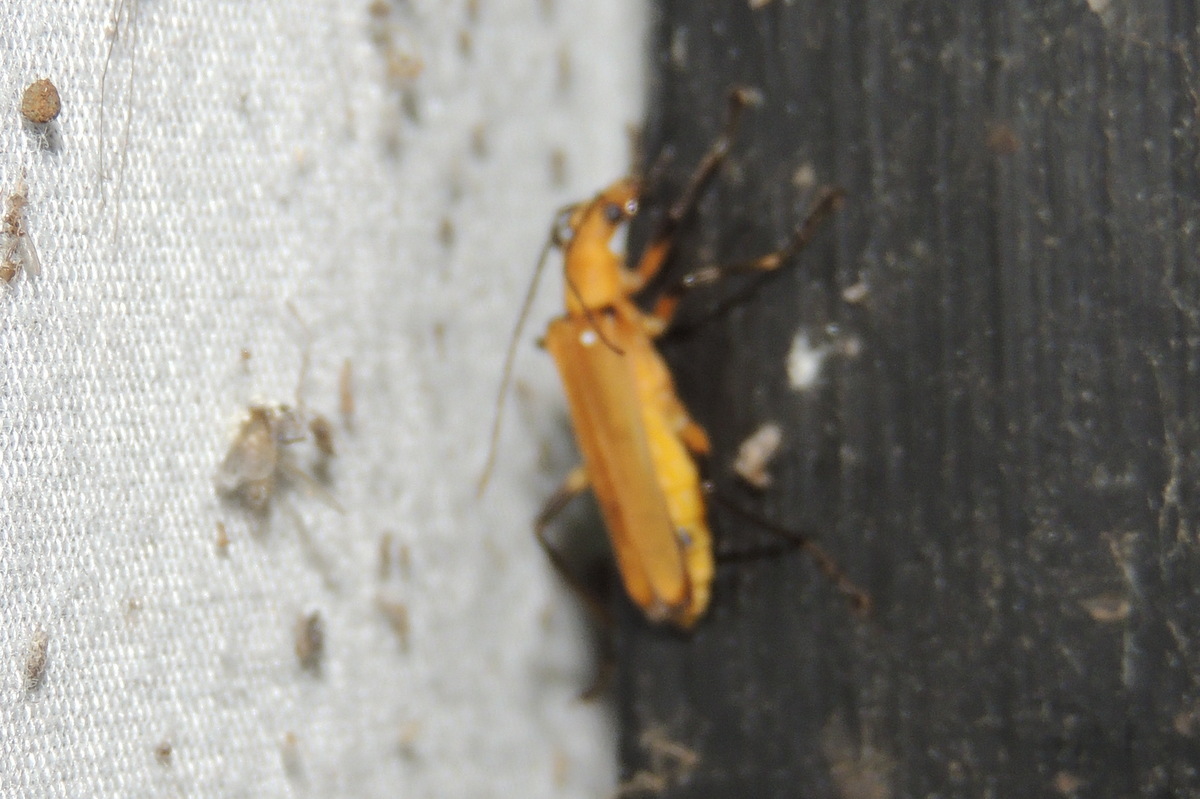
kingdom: Animalia
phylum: Arthropoda
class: Insecta
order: Coleoptera
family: Cantharidae
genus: Chauliognathus
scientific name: Chauliognathus
